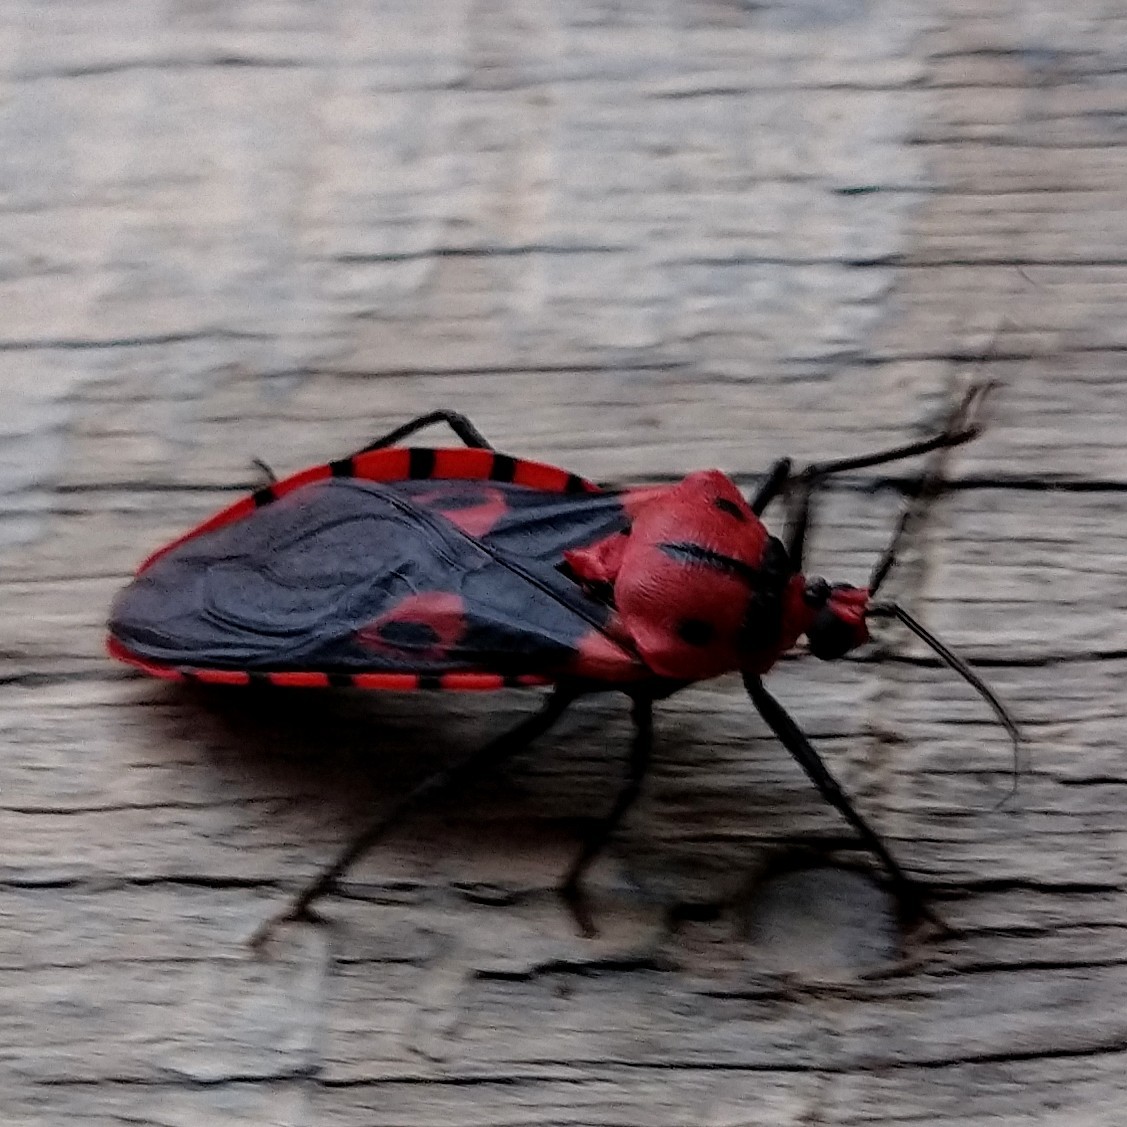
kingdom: Animalia
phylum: Arthropoda
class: Insecta
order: Hemiptera
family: Reduviidae
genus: Sphaeridops
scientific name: Sphaeridops amoenus
